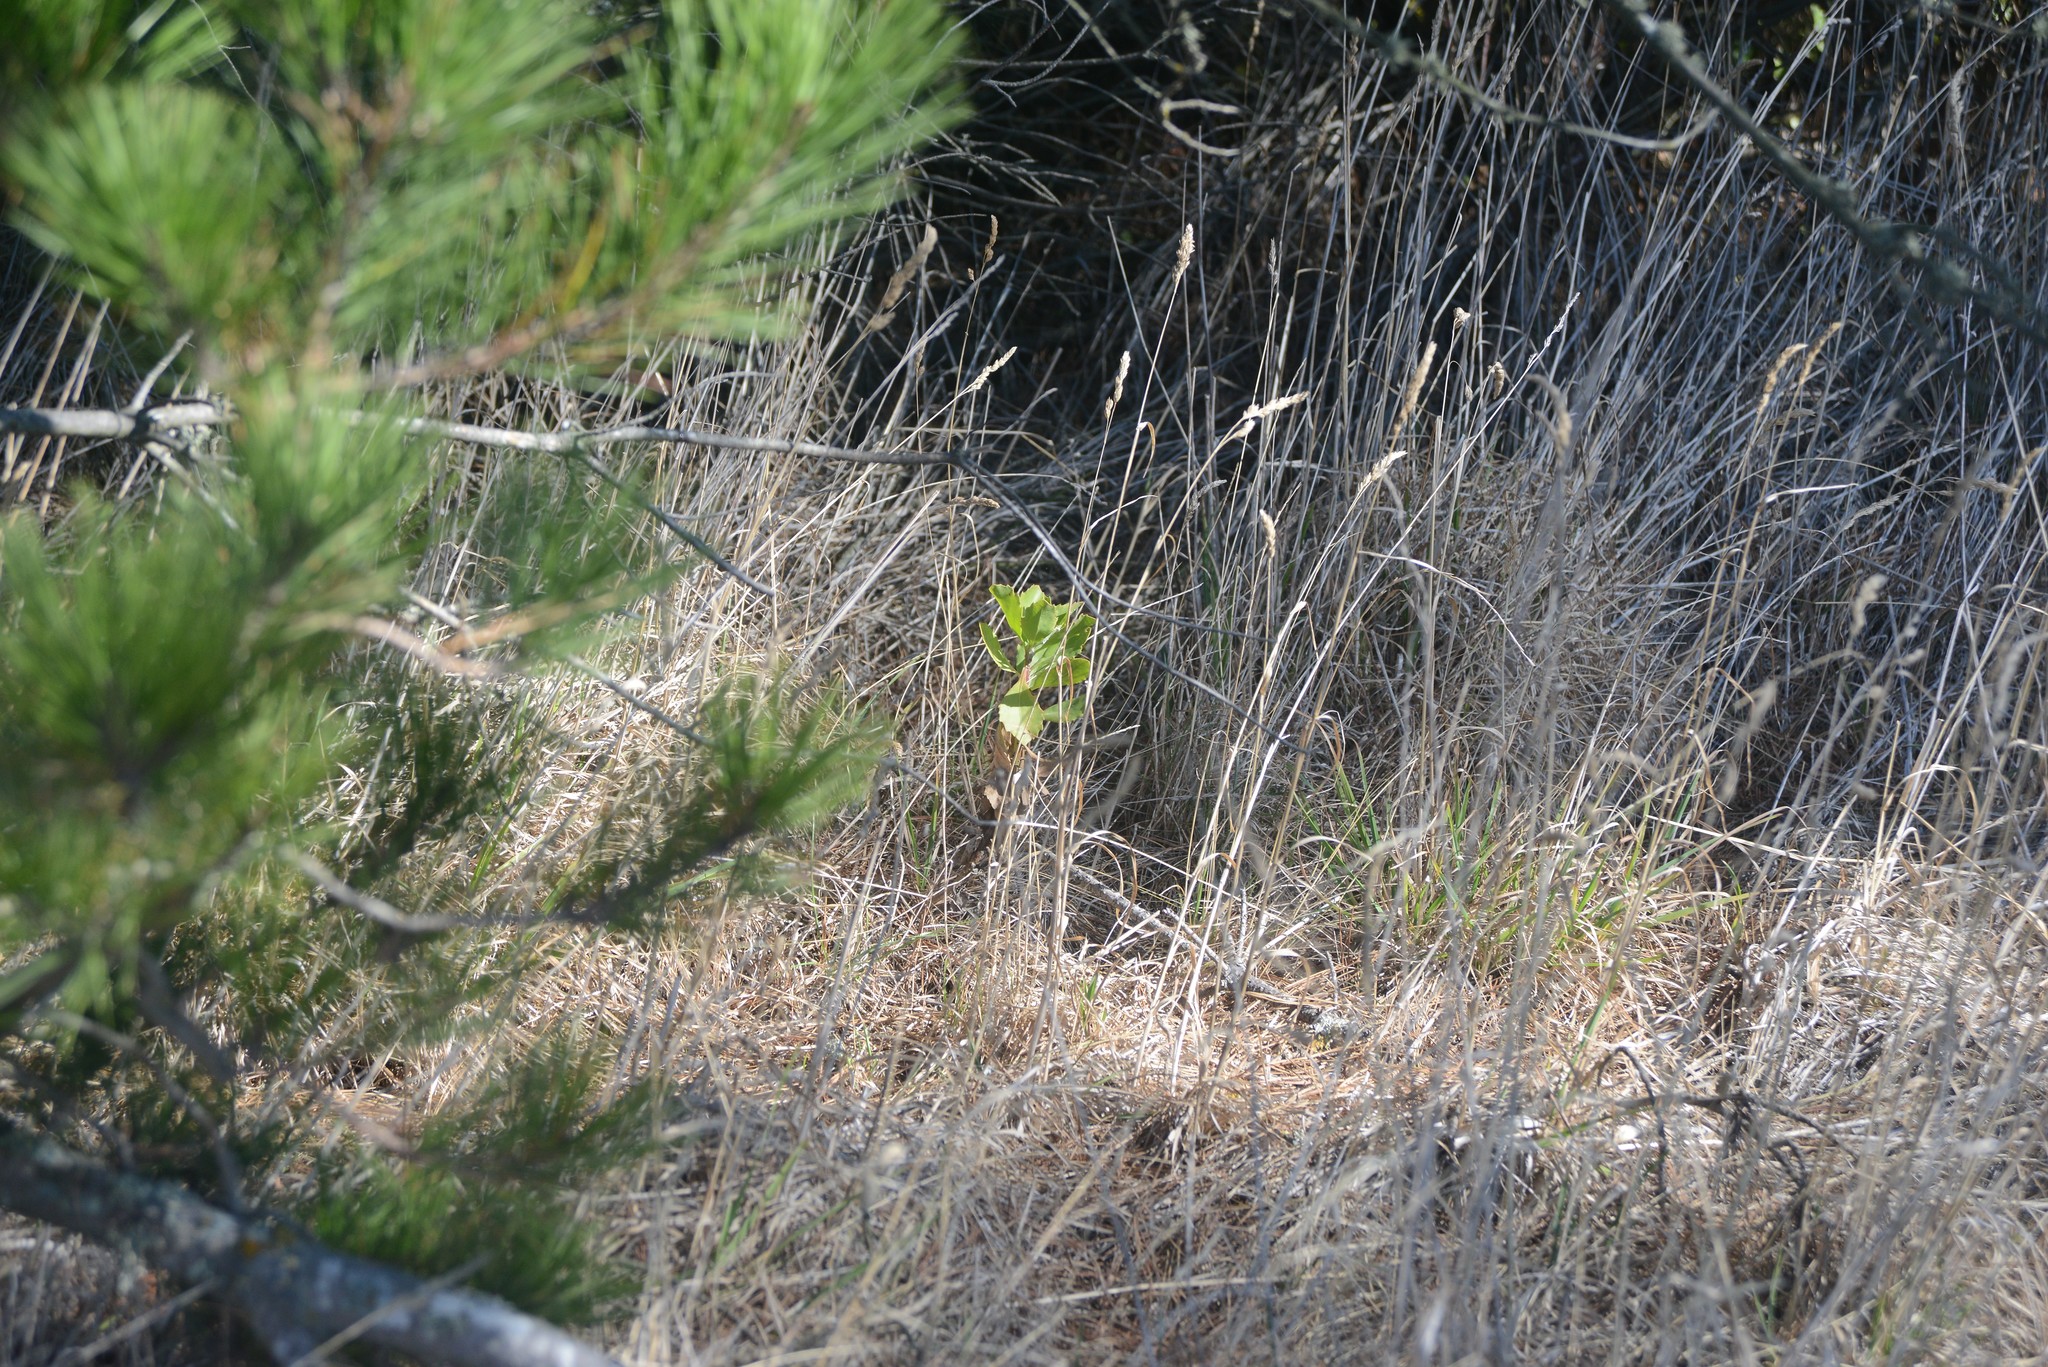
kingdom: Plantae
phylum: Tracheophyta
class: Magnoliopsida
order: Asterales
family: Asteraceae
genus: Osteospermum
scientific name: Osteospermum moniliferum
